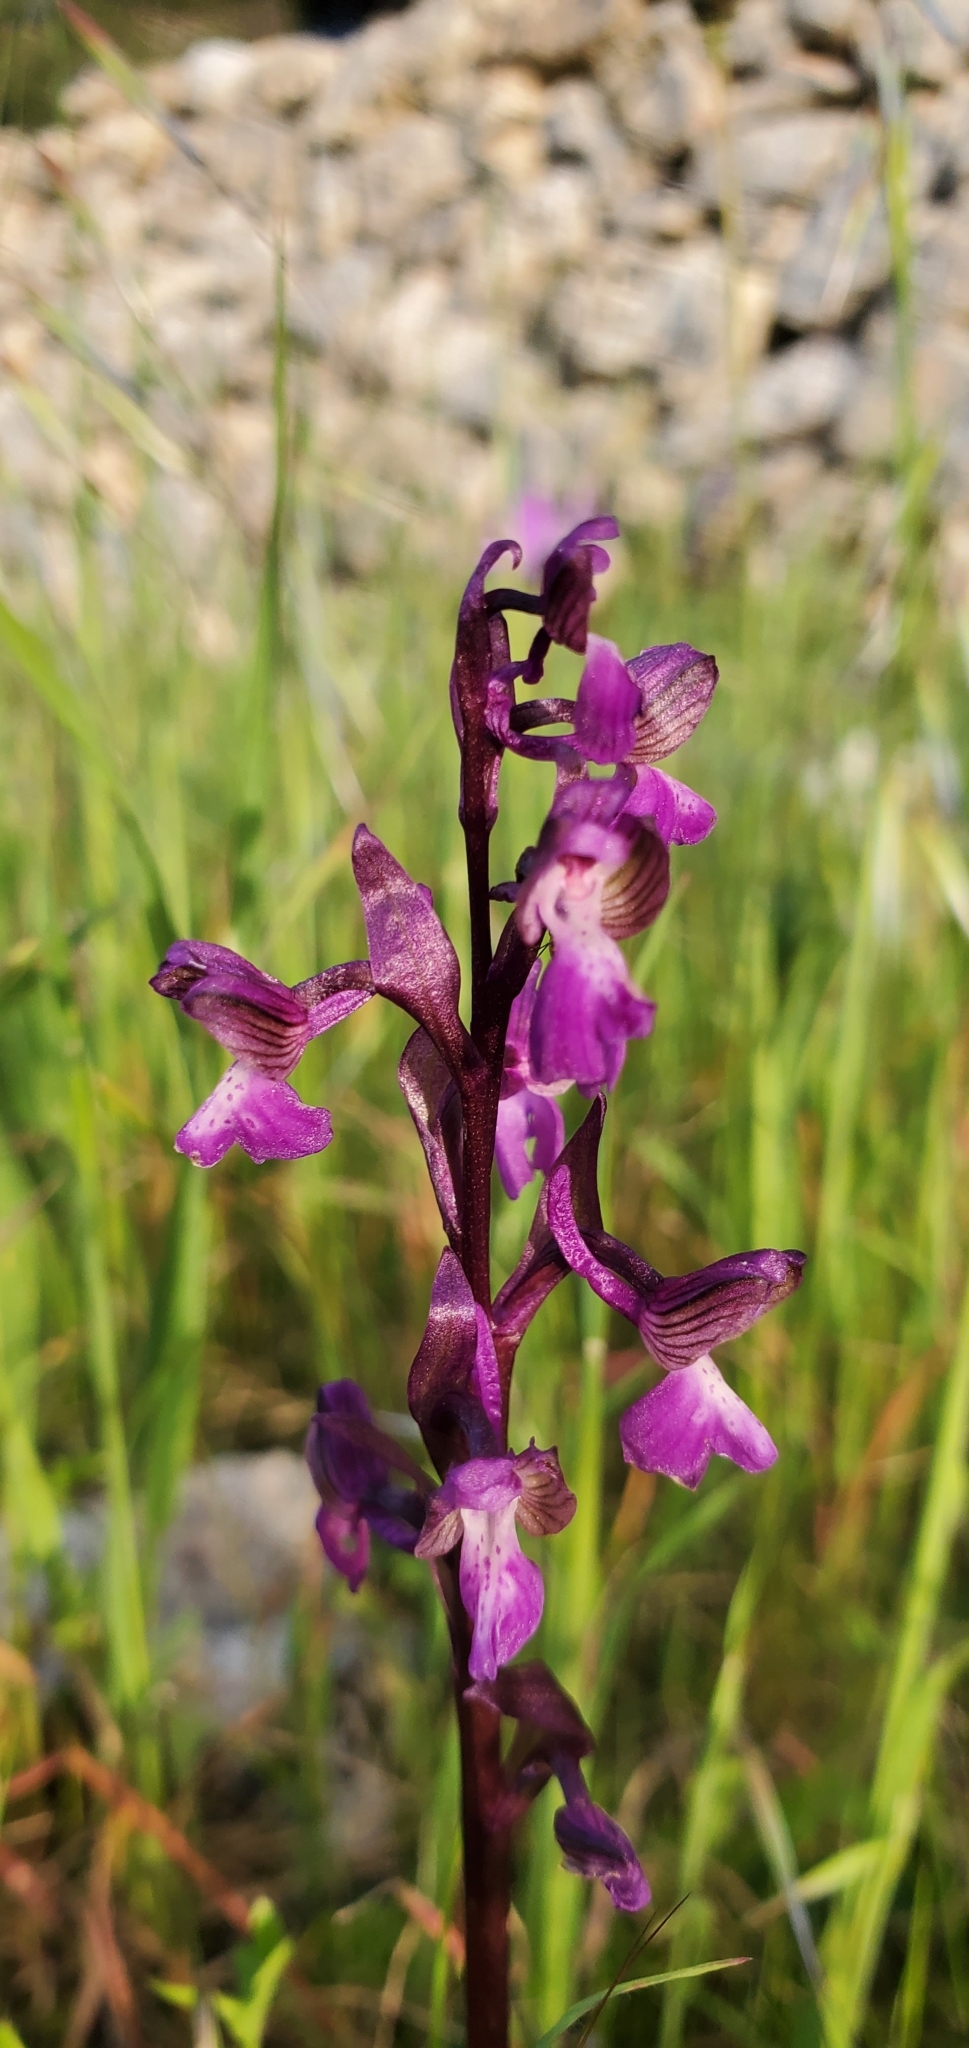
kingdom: Plantae
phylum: Tracheophyta
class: Liliopsida
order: Asparagales
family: Orchidaceae
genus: Anacamptis
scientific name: Anacamptis morio
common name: Green-winged orchid
